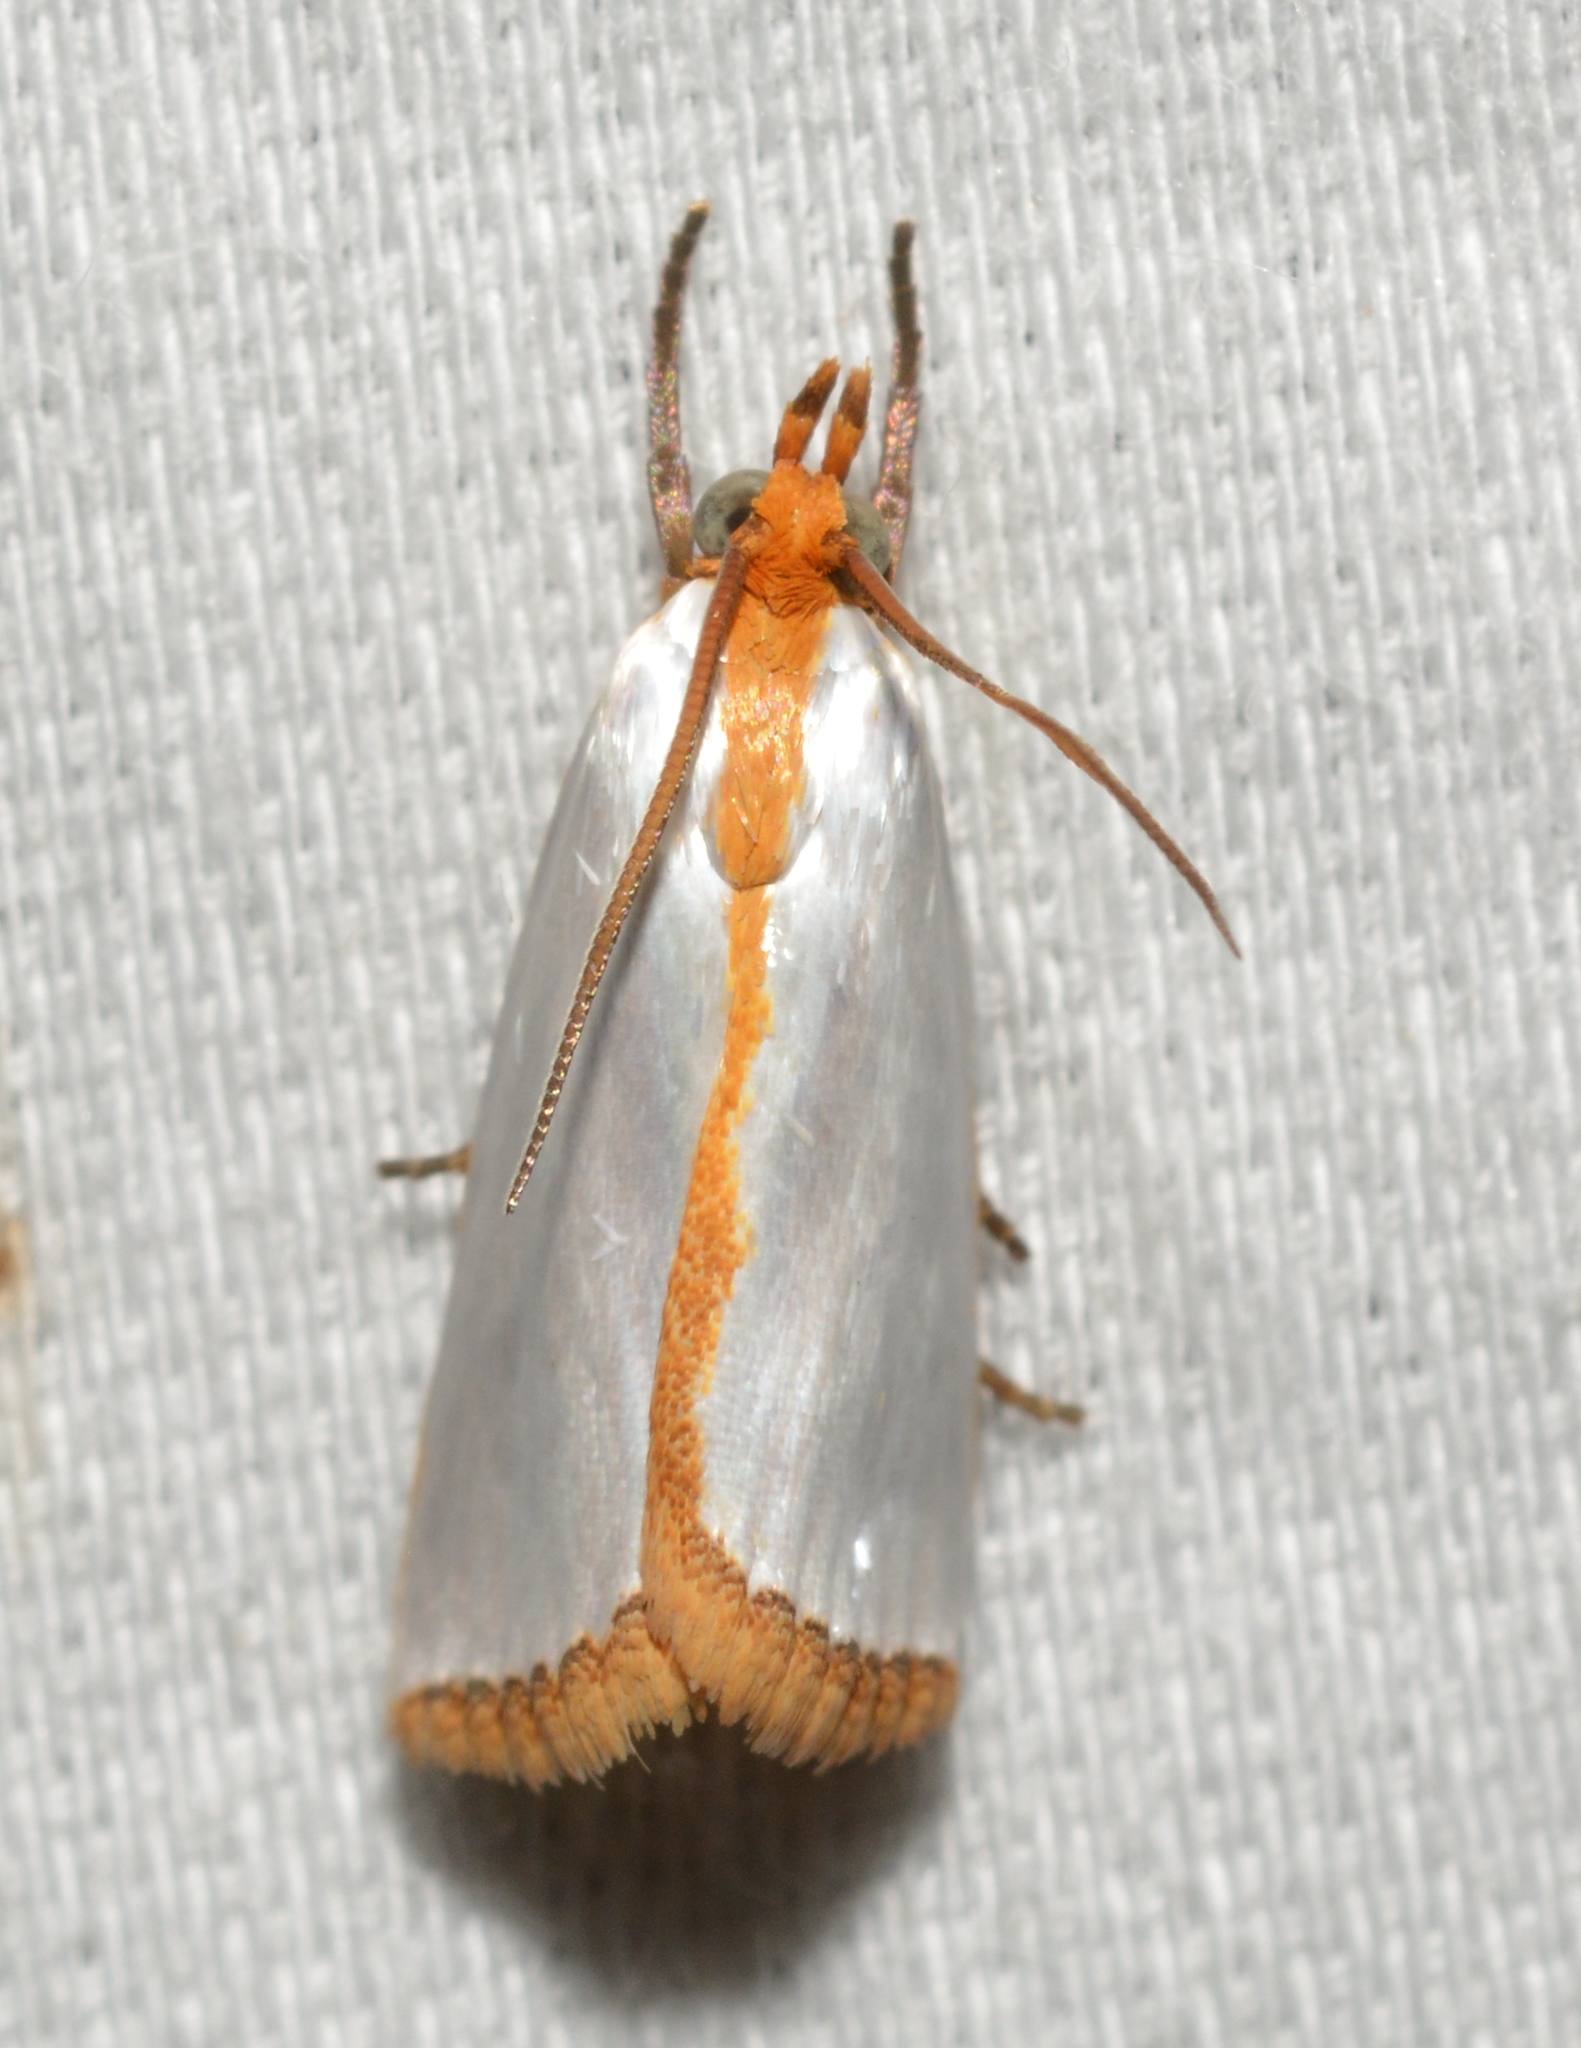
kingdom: Animalia
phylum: Arthropoda
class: Insecta
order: Lepidoptera
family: Crambidae
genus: Argyria
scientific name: Argyria
